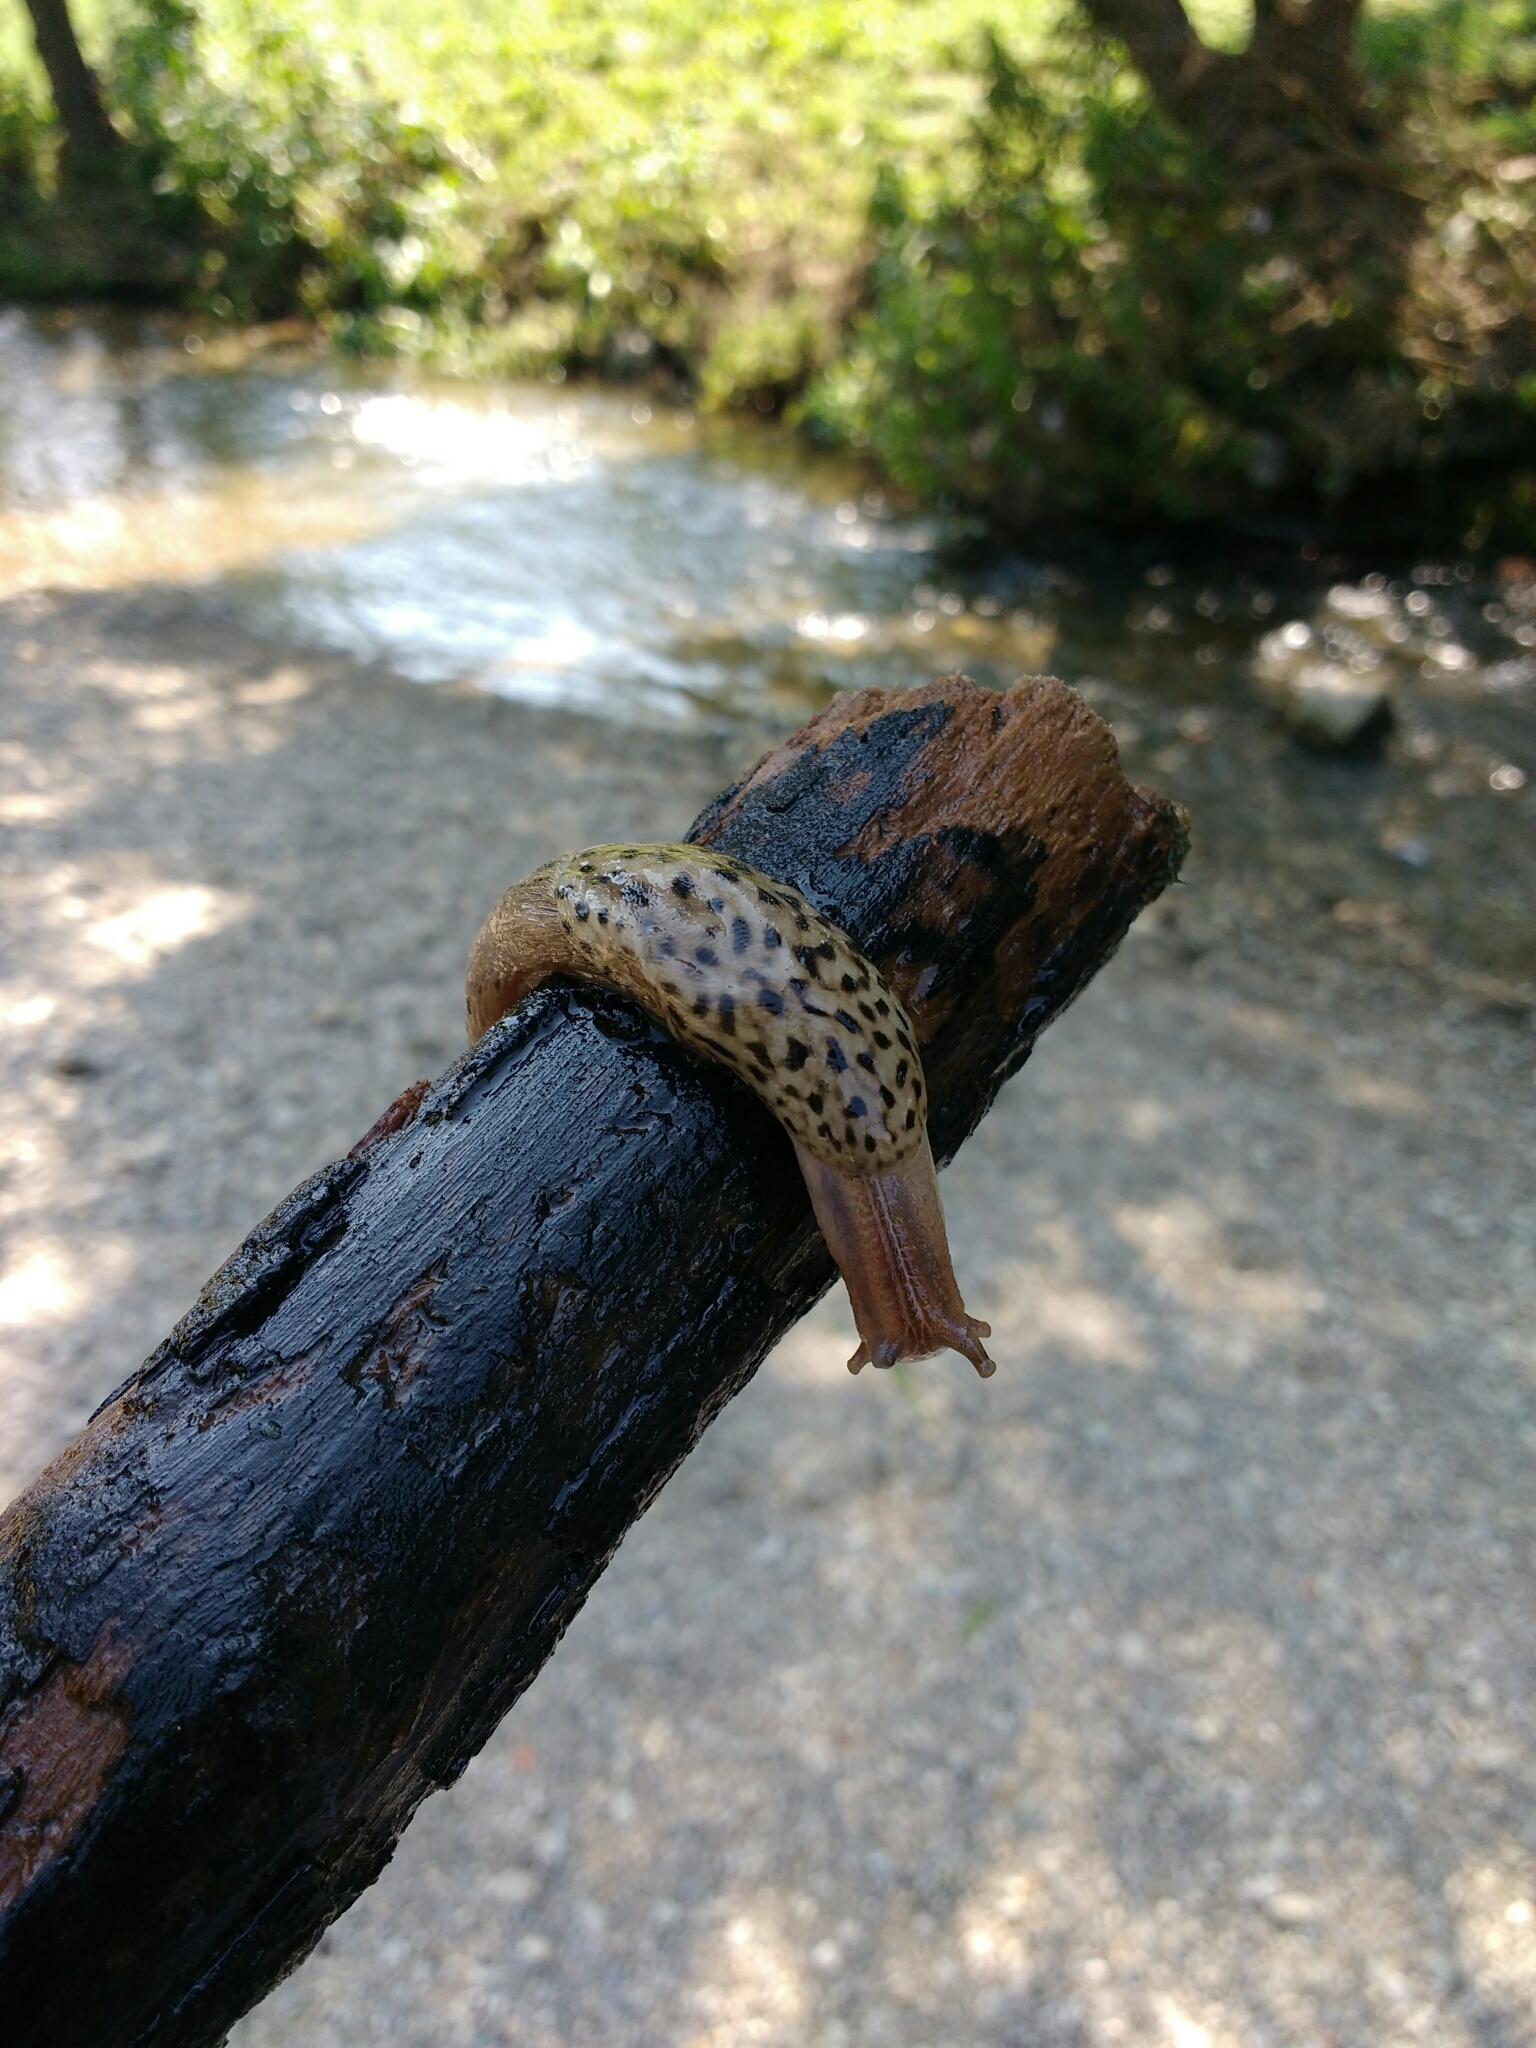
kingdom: Animalia
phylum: Mollusca
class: Gastropoda
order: Stylommatophora
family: Limacidae
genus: Limax
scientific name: Limax maximus
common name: Great grey slug
